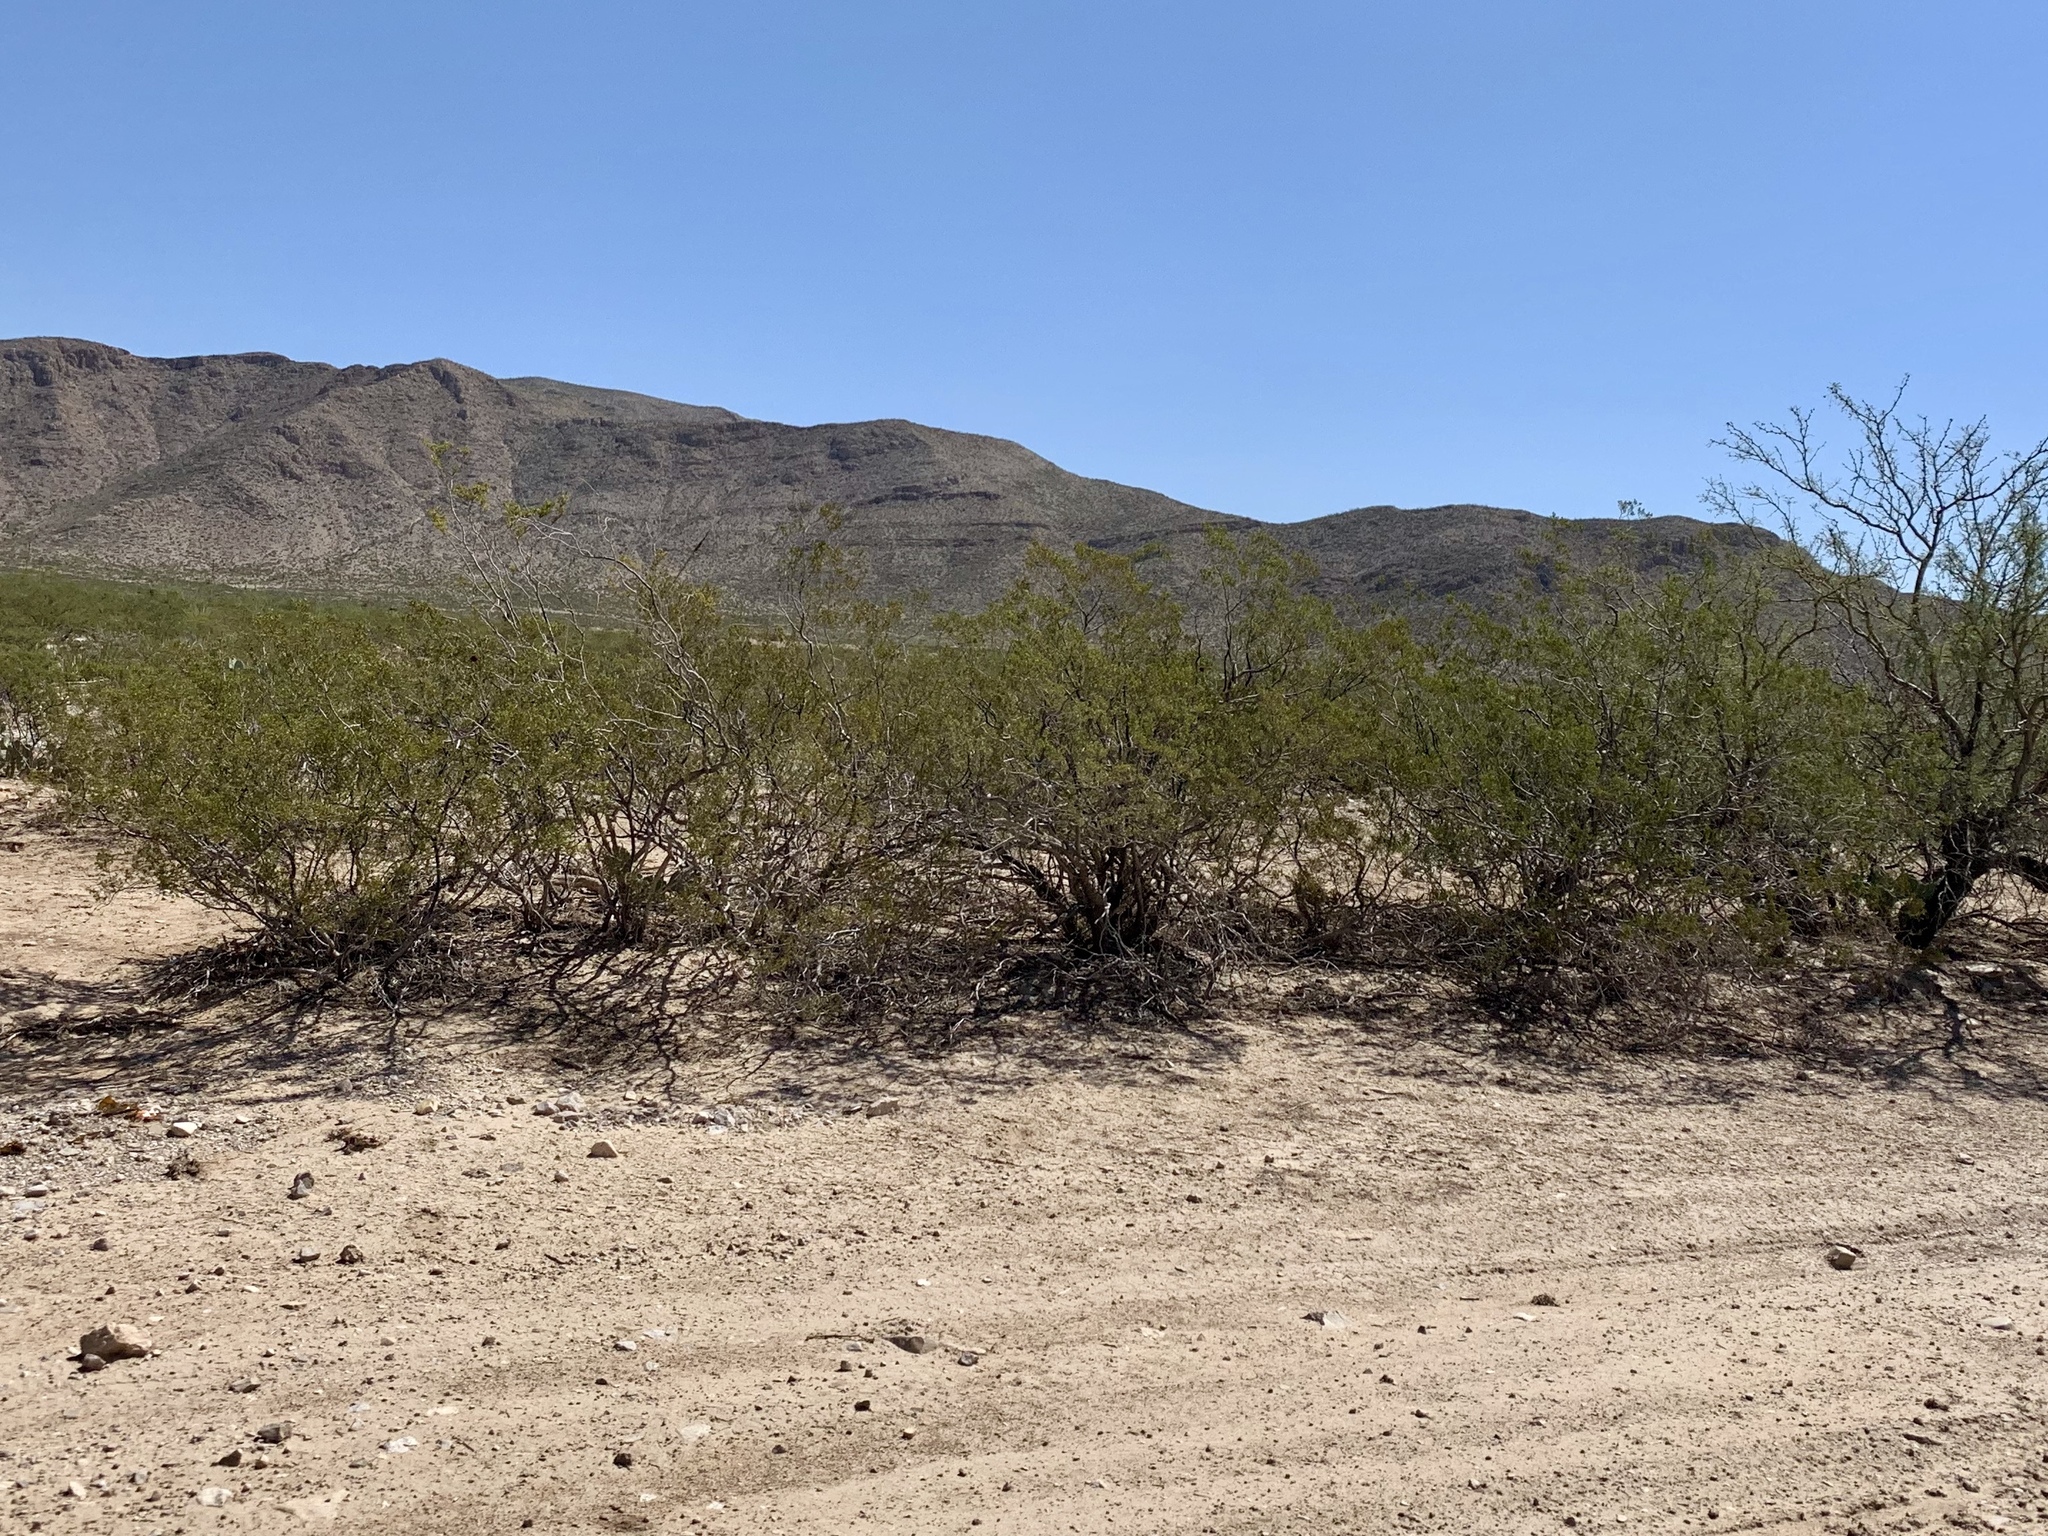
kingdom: Plantae
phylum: Tracheophyta
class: Magnoliopsida
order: Zygophyllales
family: Zygophyllaceae
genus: Larrea
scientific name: Larrea tridentata
